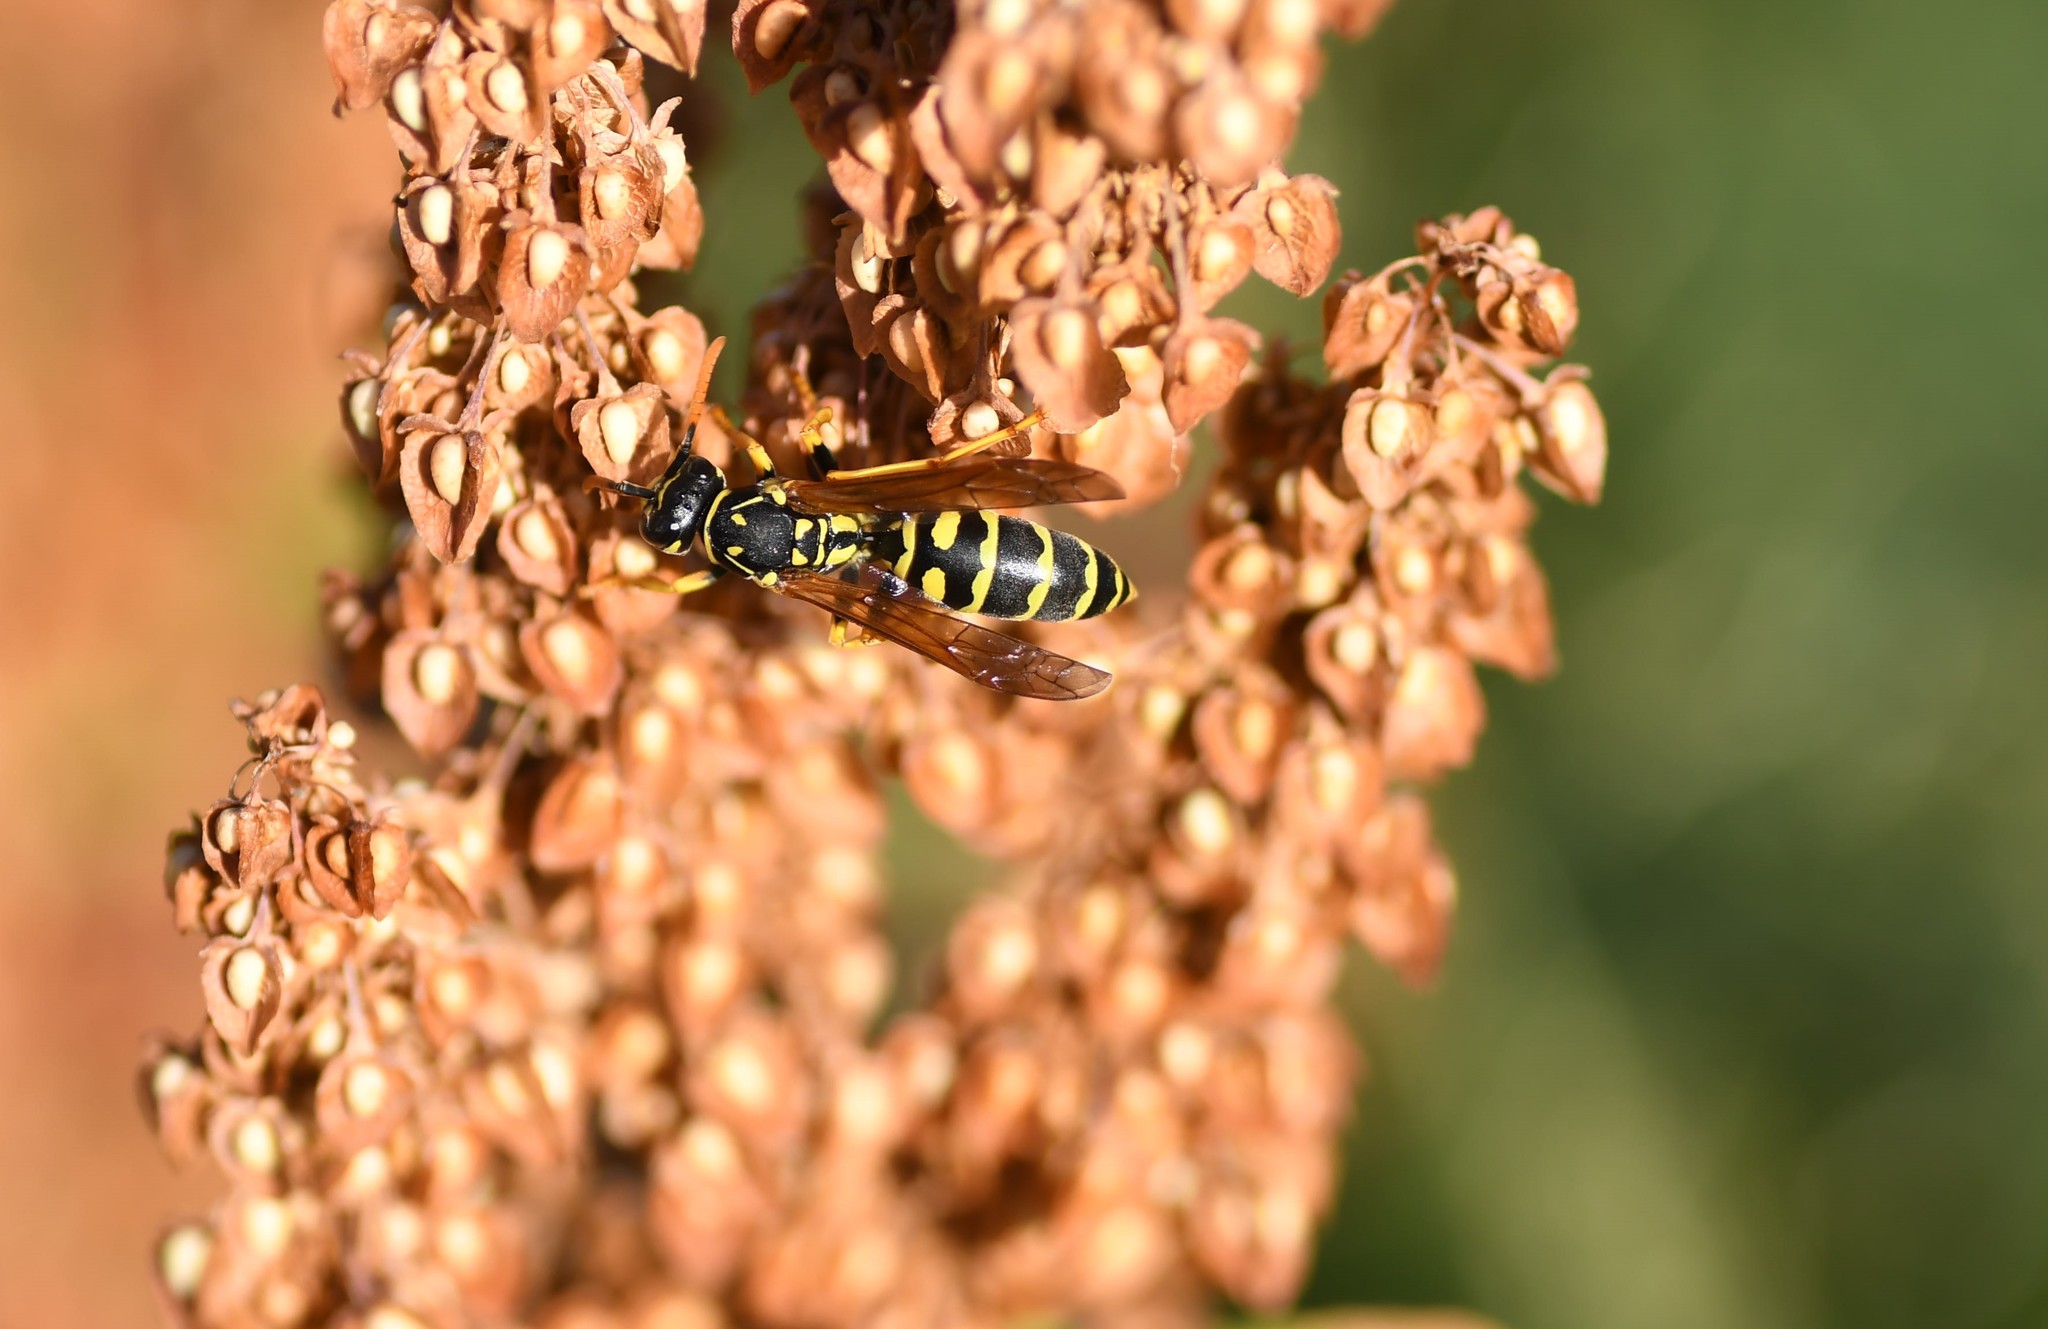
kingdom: Animalia
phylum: Arthropoda
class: Insecta
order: Hymenoptera
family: Eumenidae
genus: Polistes
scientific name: Polistes dominula
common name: Paper wasp
